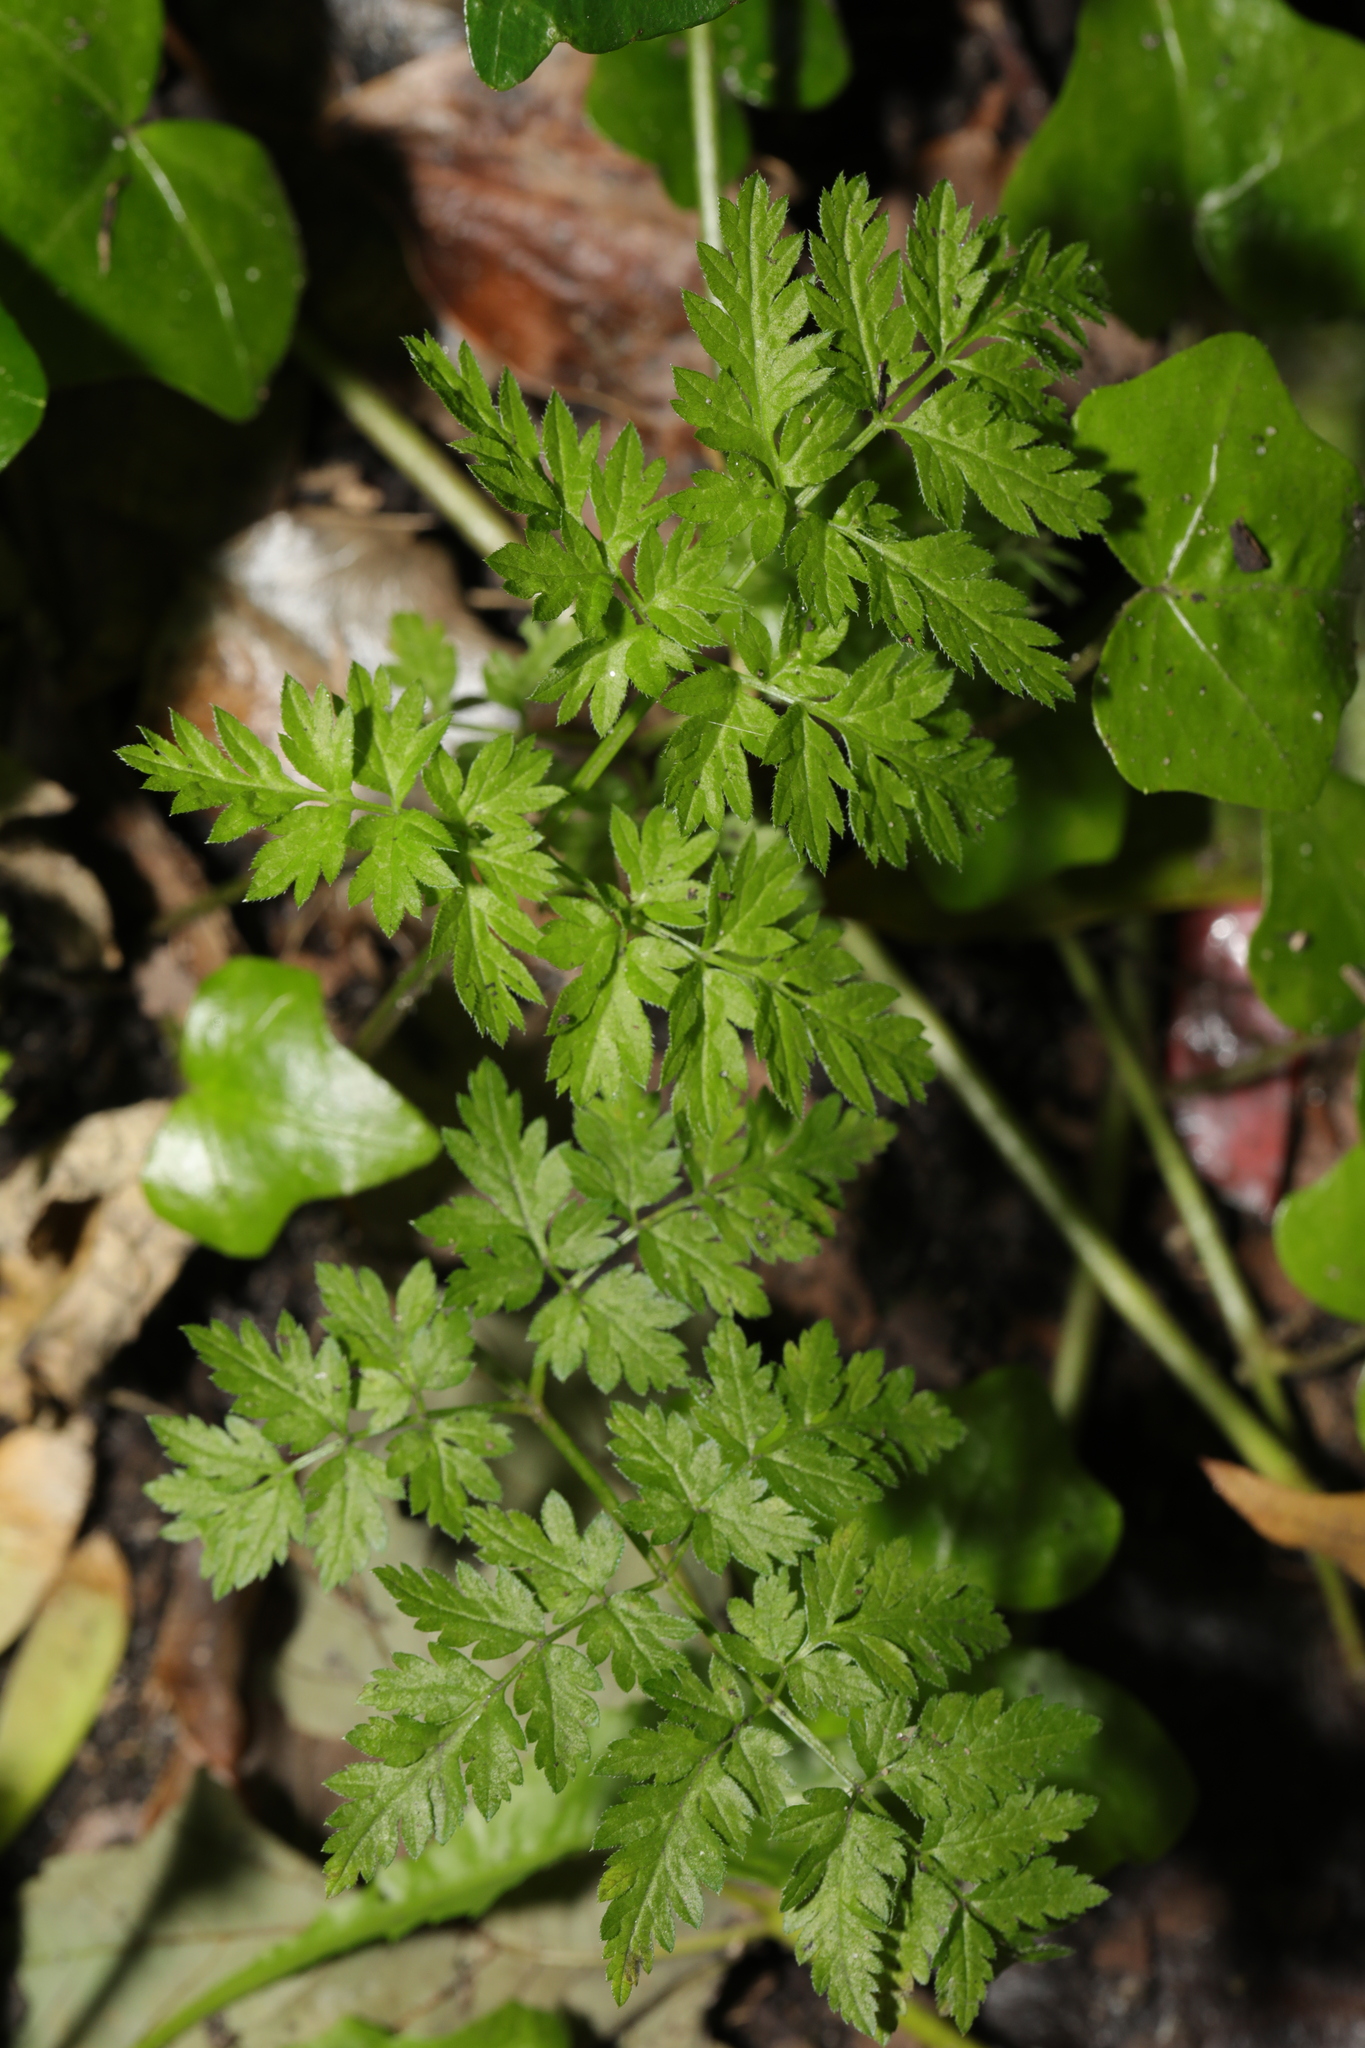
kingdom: Plantae
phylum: Tracheophyta
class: Magnoliopsida
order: Apiales
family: Apiaceae
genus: Anthriscus
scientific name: Anthriscus sylvestris
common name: Cow parsley
